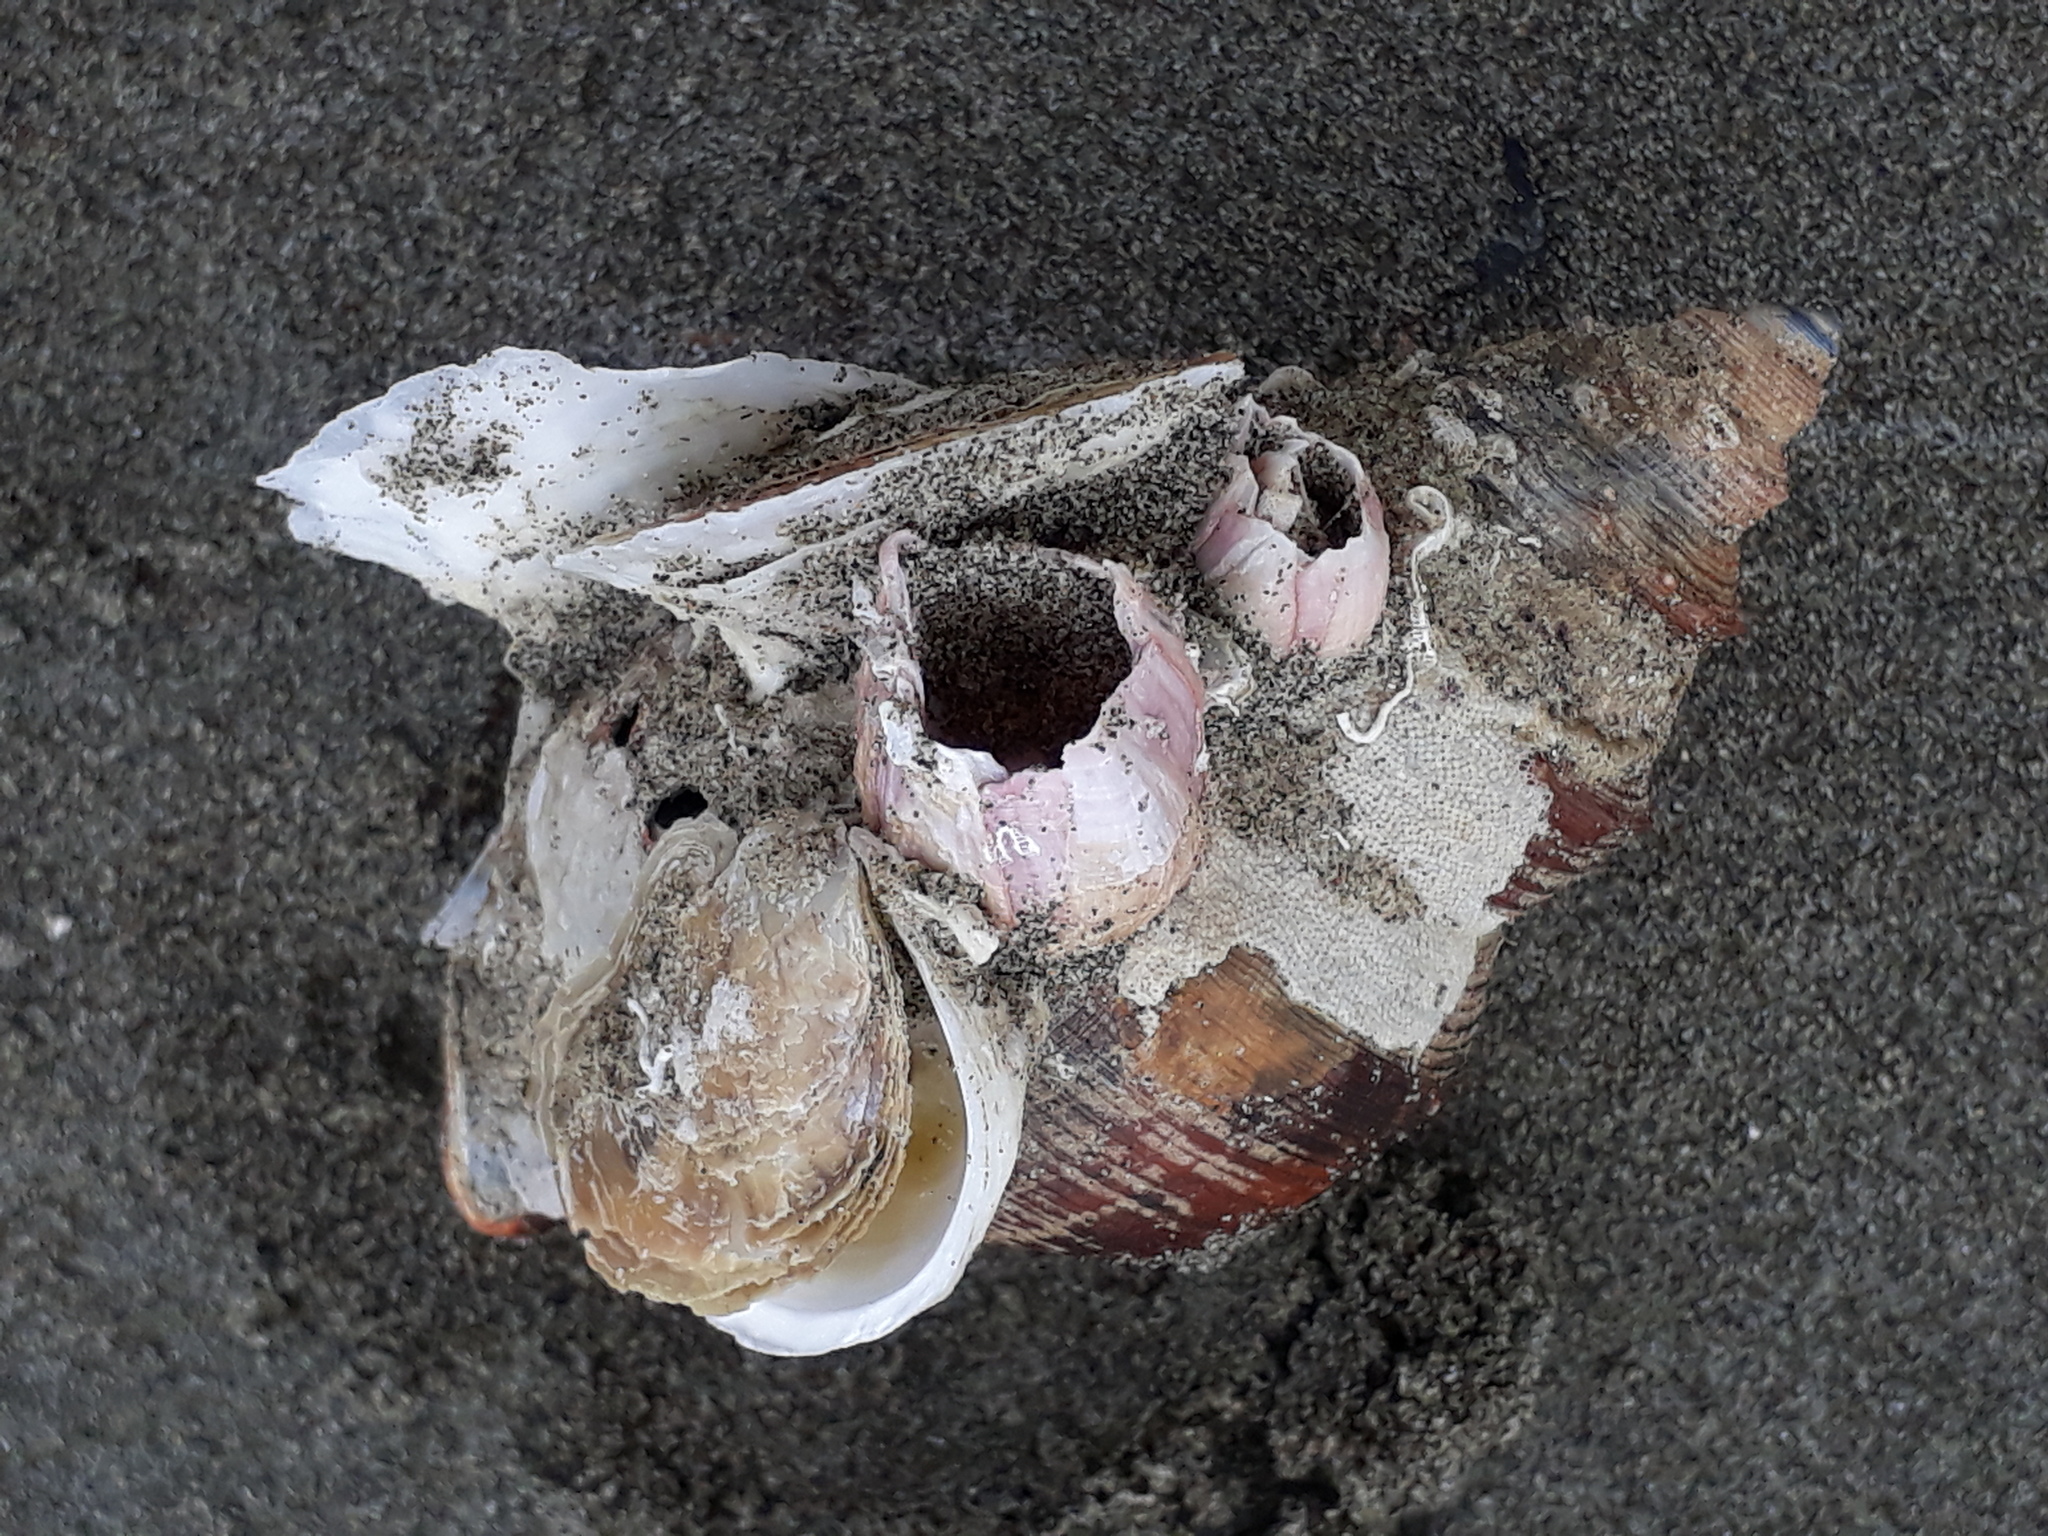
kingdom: Animalia
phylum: Arthropoda
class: Maxillopoda
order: Sessilia
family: Balanidae
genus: Notomegabalanus
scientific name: Notomegabalanus decorus
